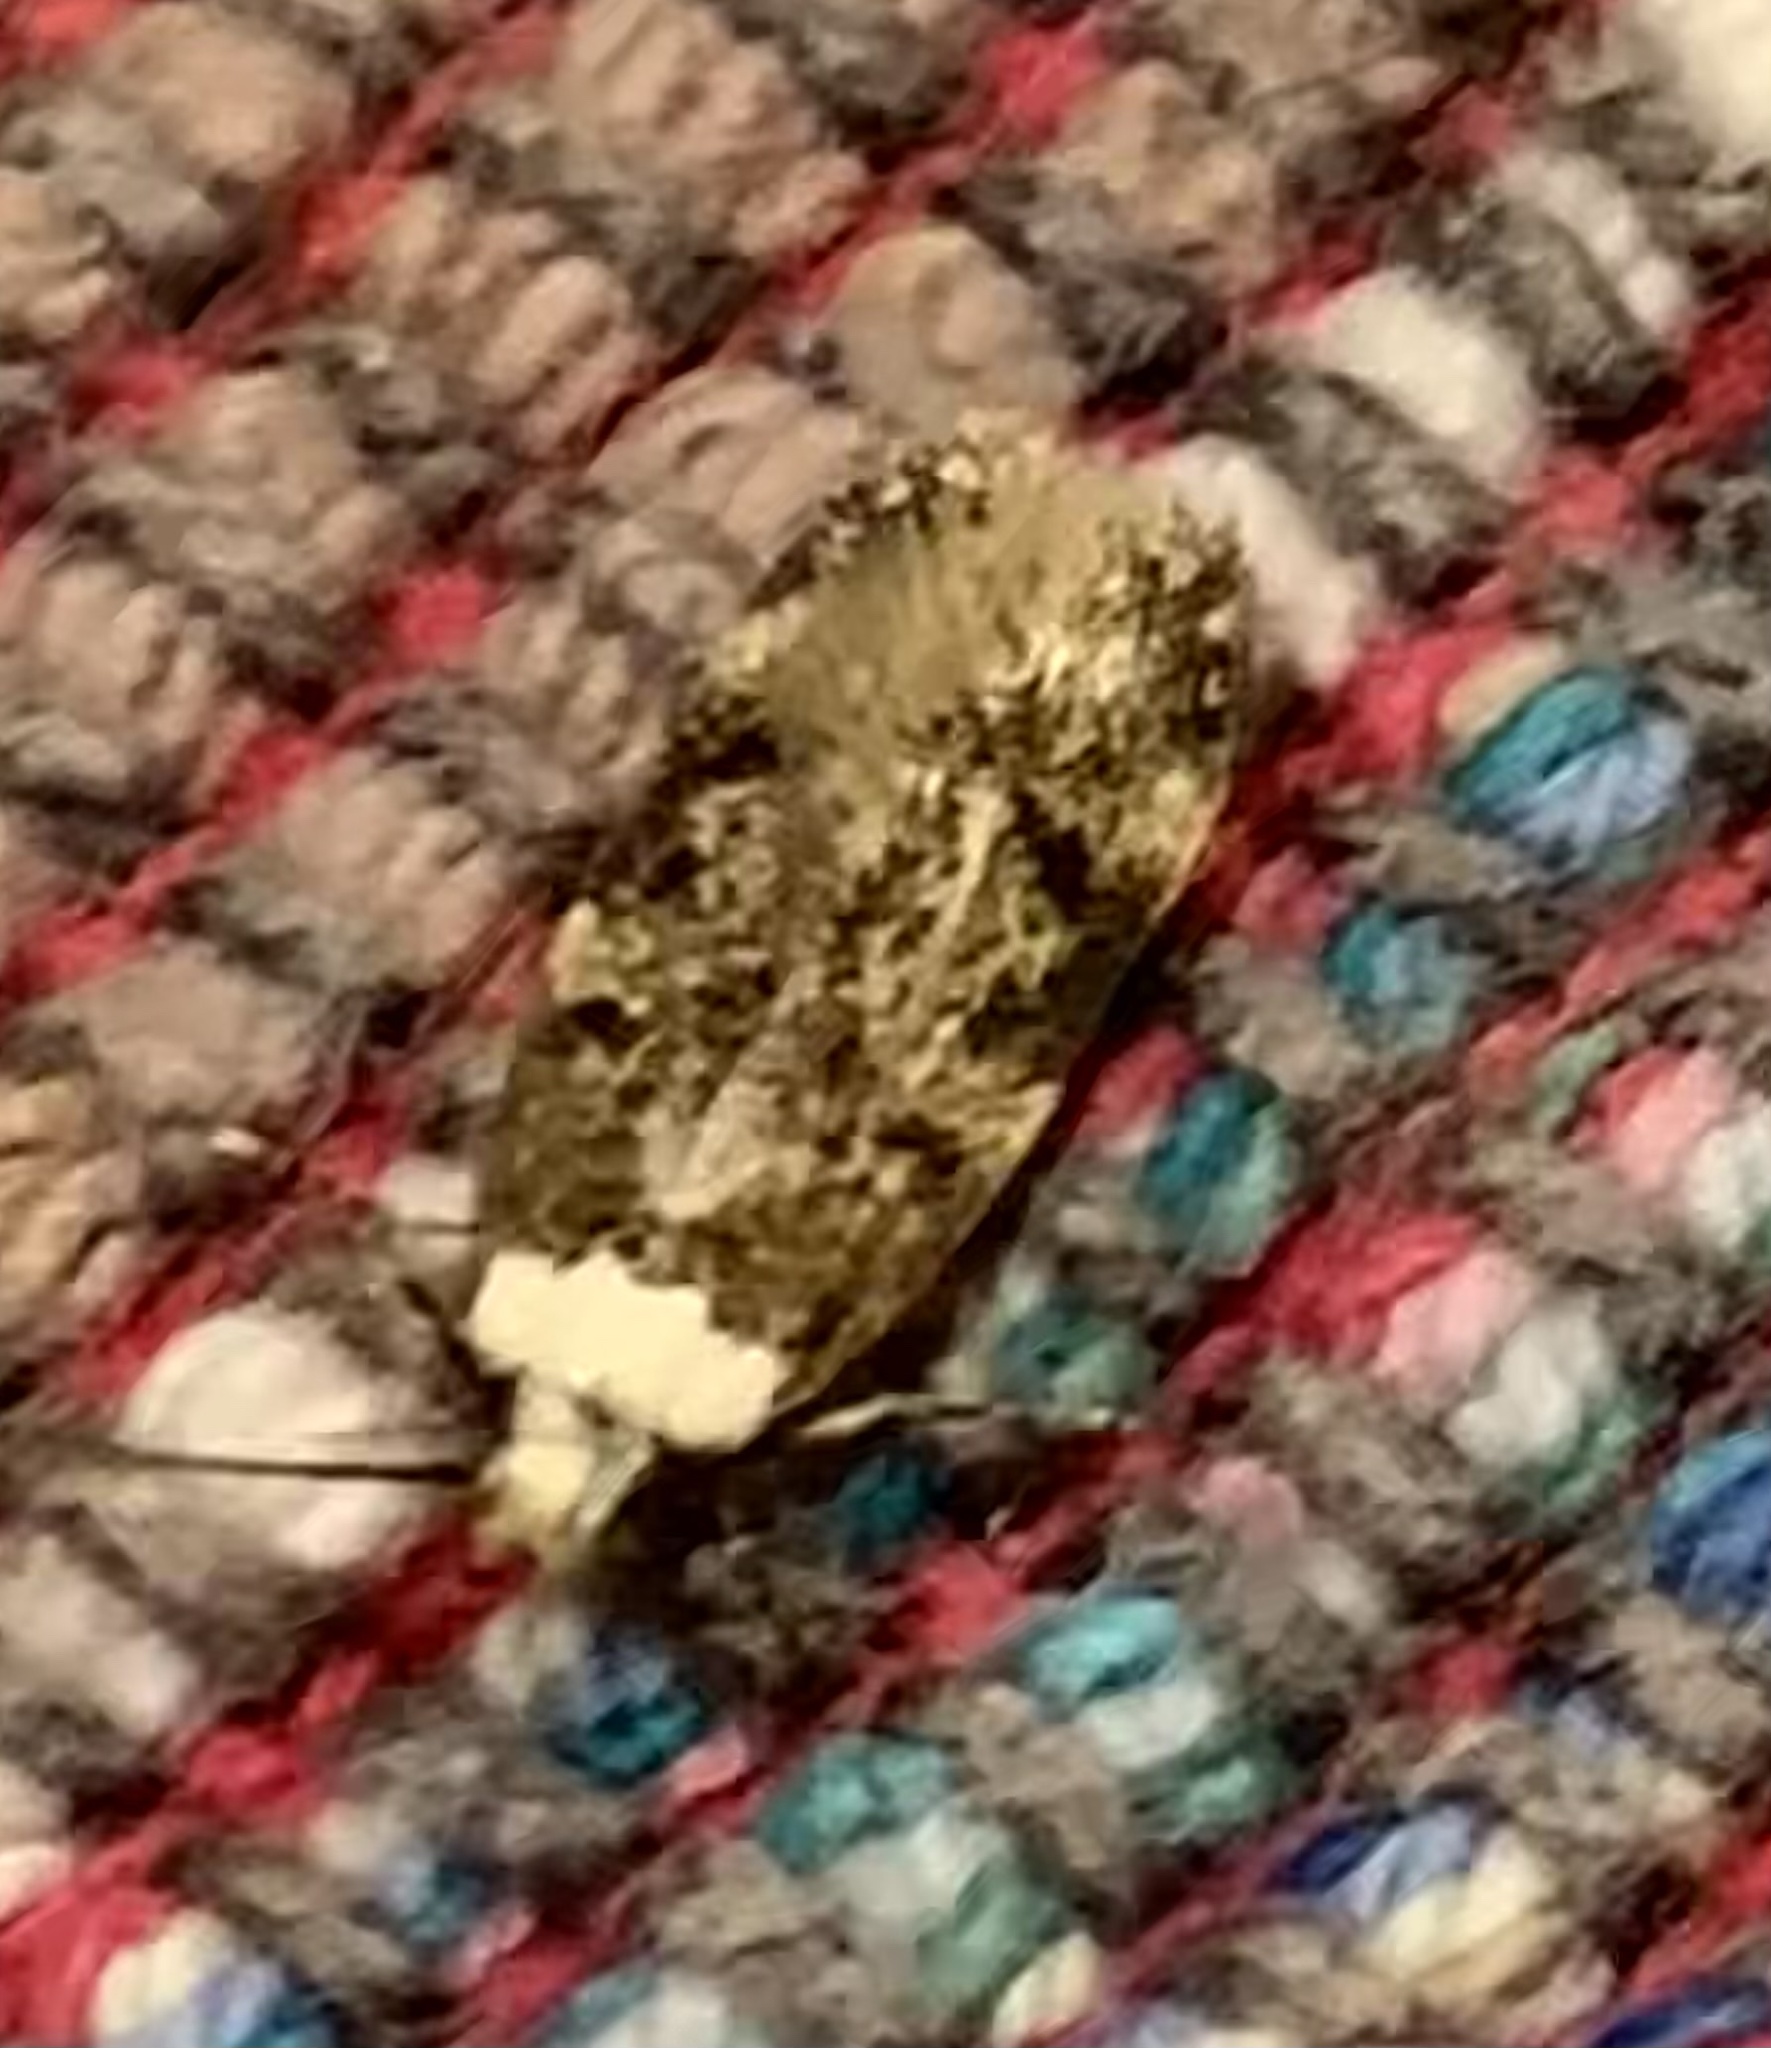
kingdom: Animalia
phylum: Arthropoda
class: Insecta
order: Lepidoptera
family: Oecophoridae
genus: Endrosis
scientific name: Endrosis sarcitrella
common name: White-shouldered house moth
